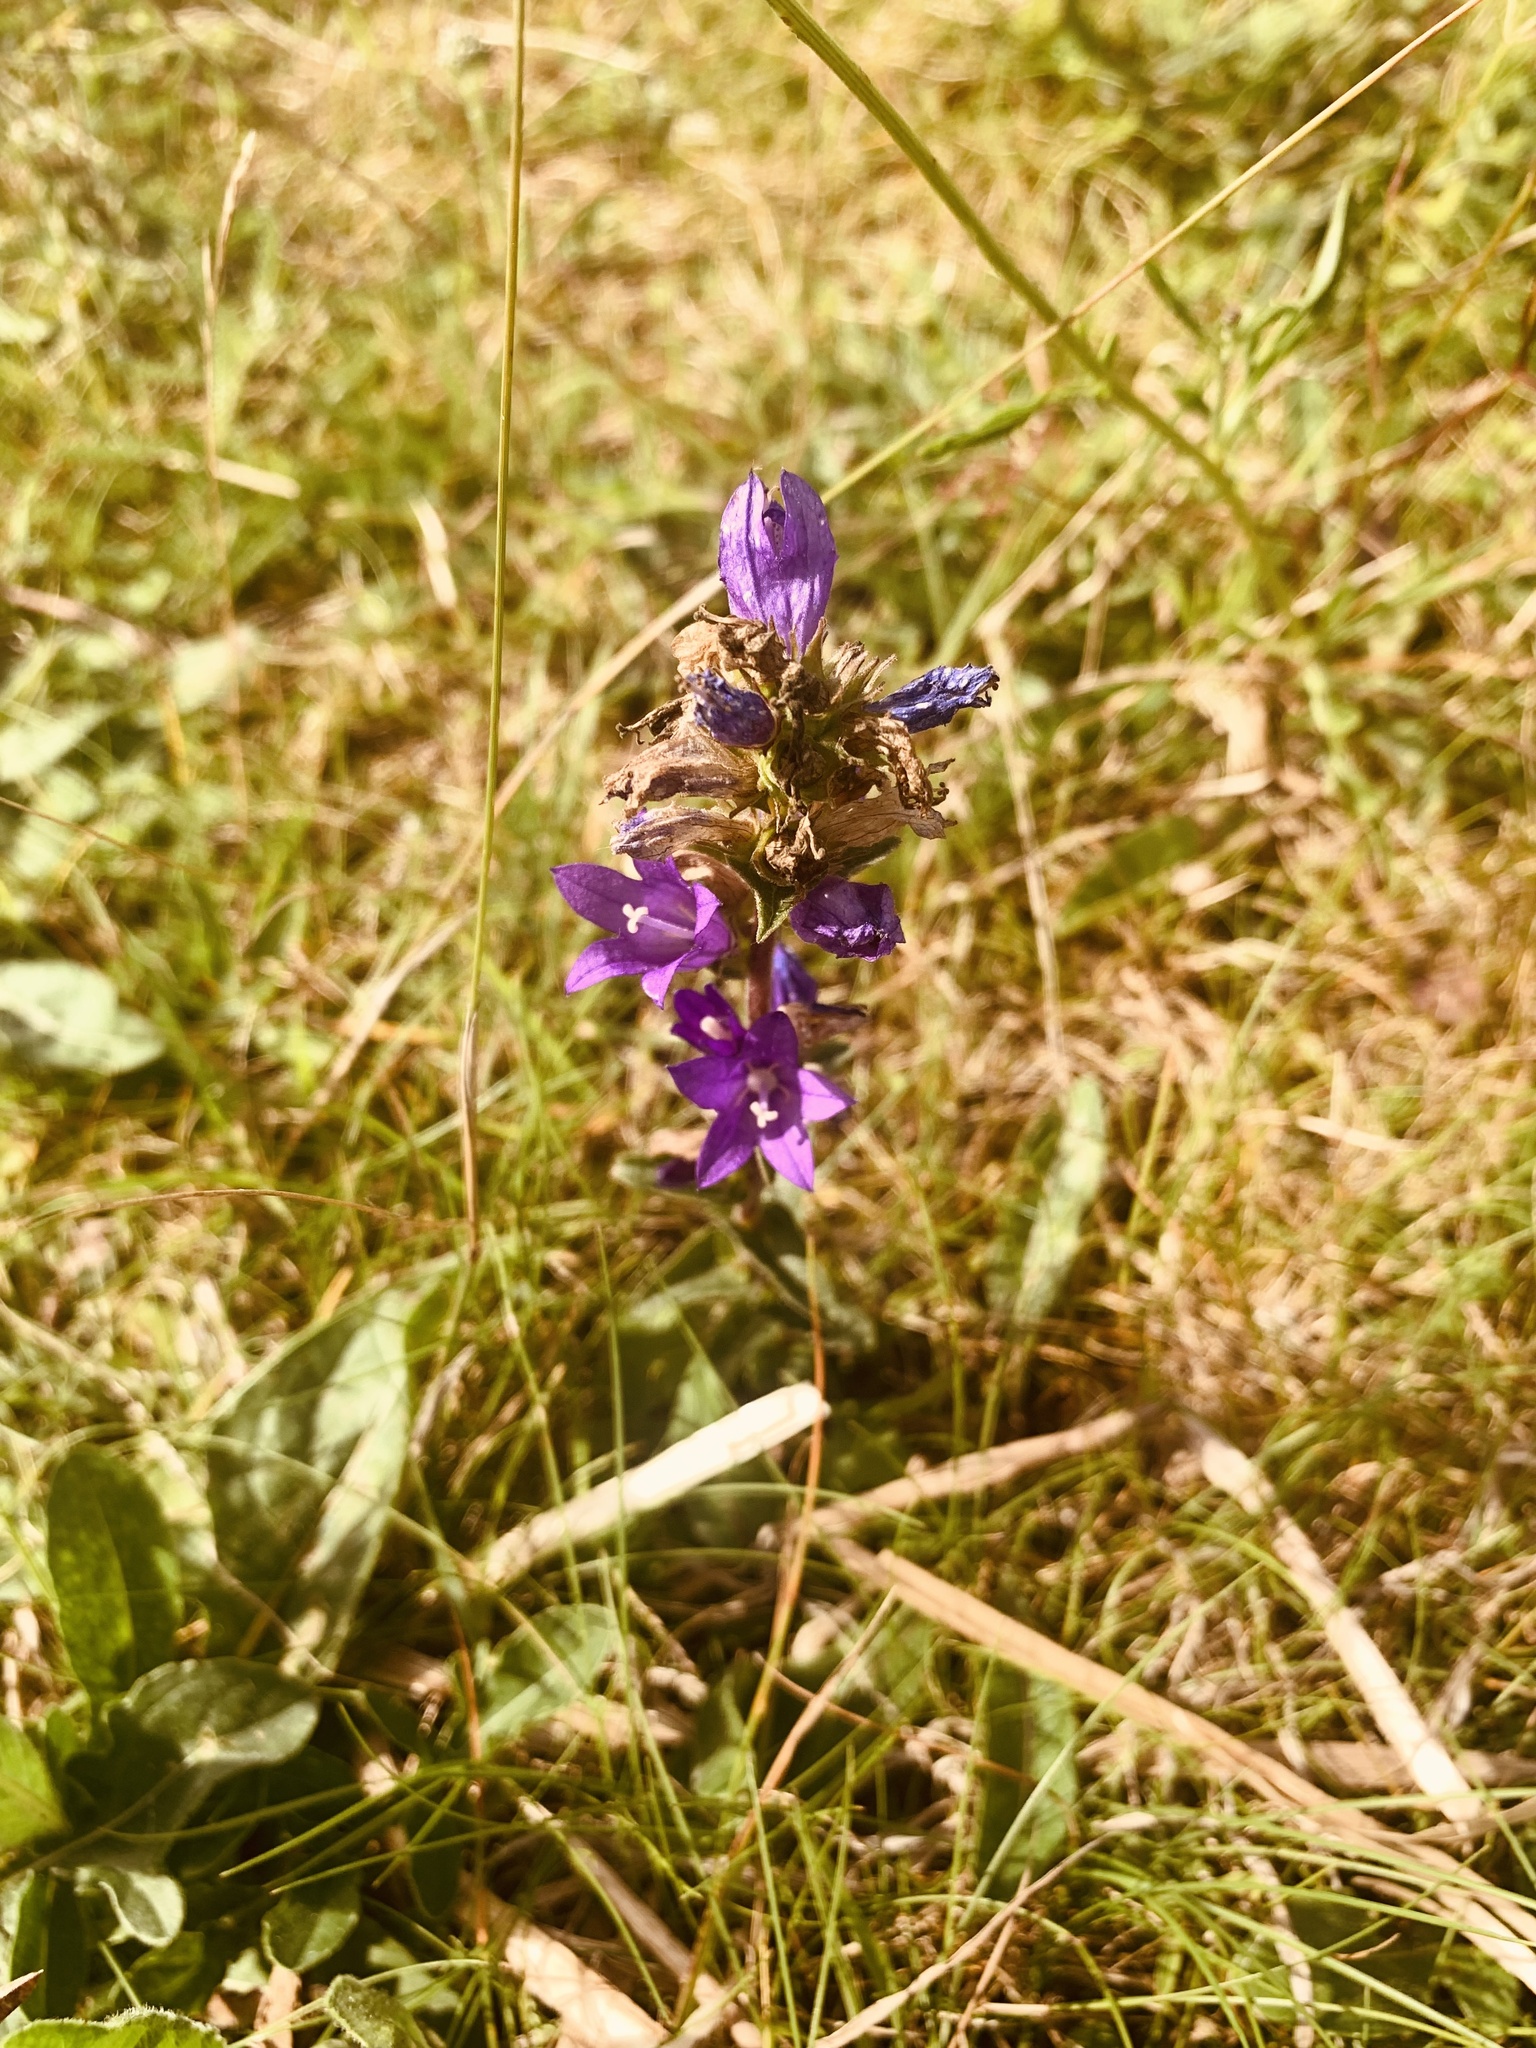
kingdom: Plantae
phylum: Tracheophyta
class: Magnoliopsida
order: Asterales
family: Campanulaceae
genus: Campanula
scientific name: Campanula glomerata
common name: Clustered bellflower
